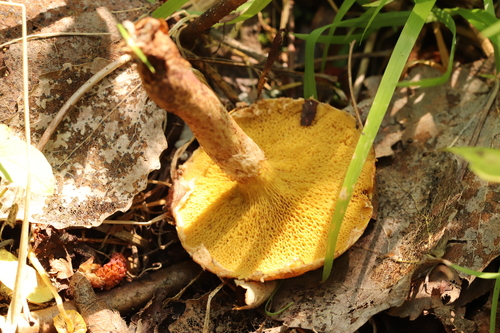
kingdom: Fungi
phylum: Basidiomycota
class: Agaricomycetes
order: Boletales
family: Suillaceae
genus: Suillus
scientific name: Suillus americanus
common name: Chicken fat mushroom
